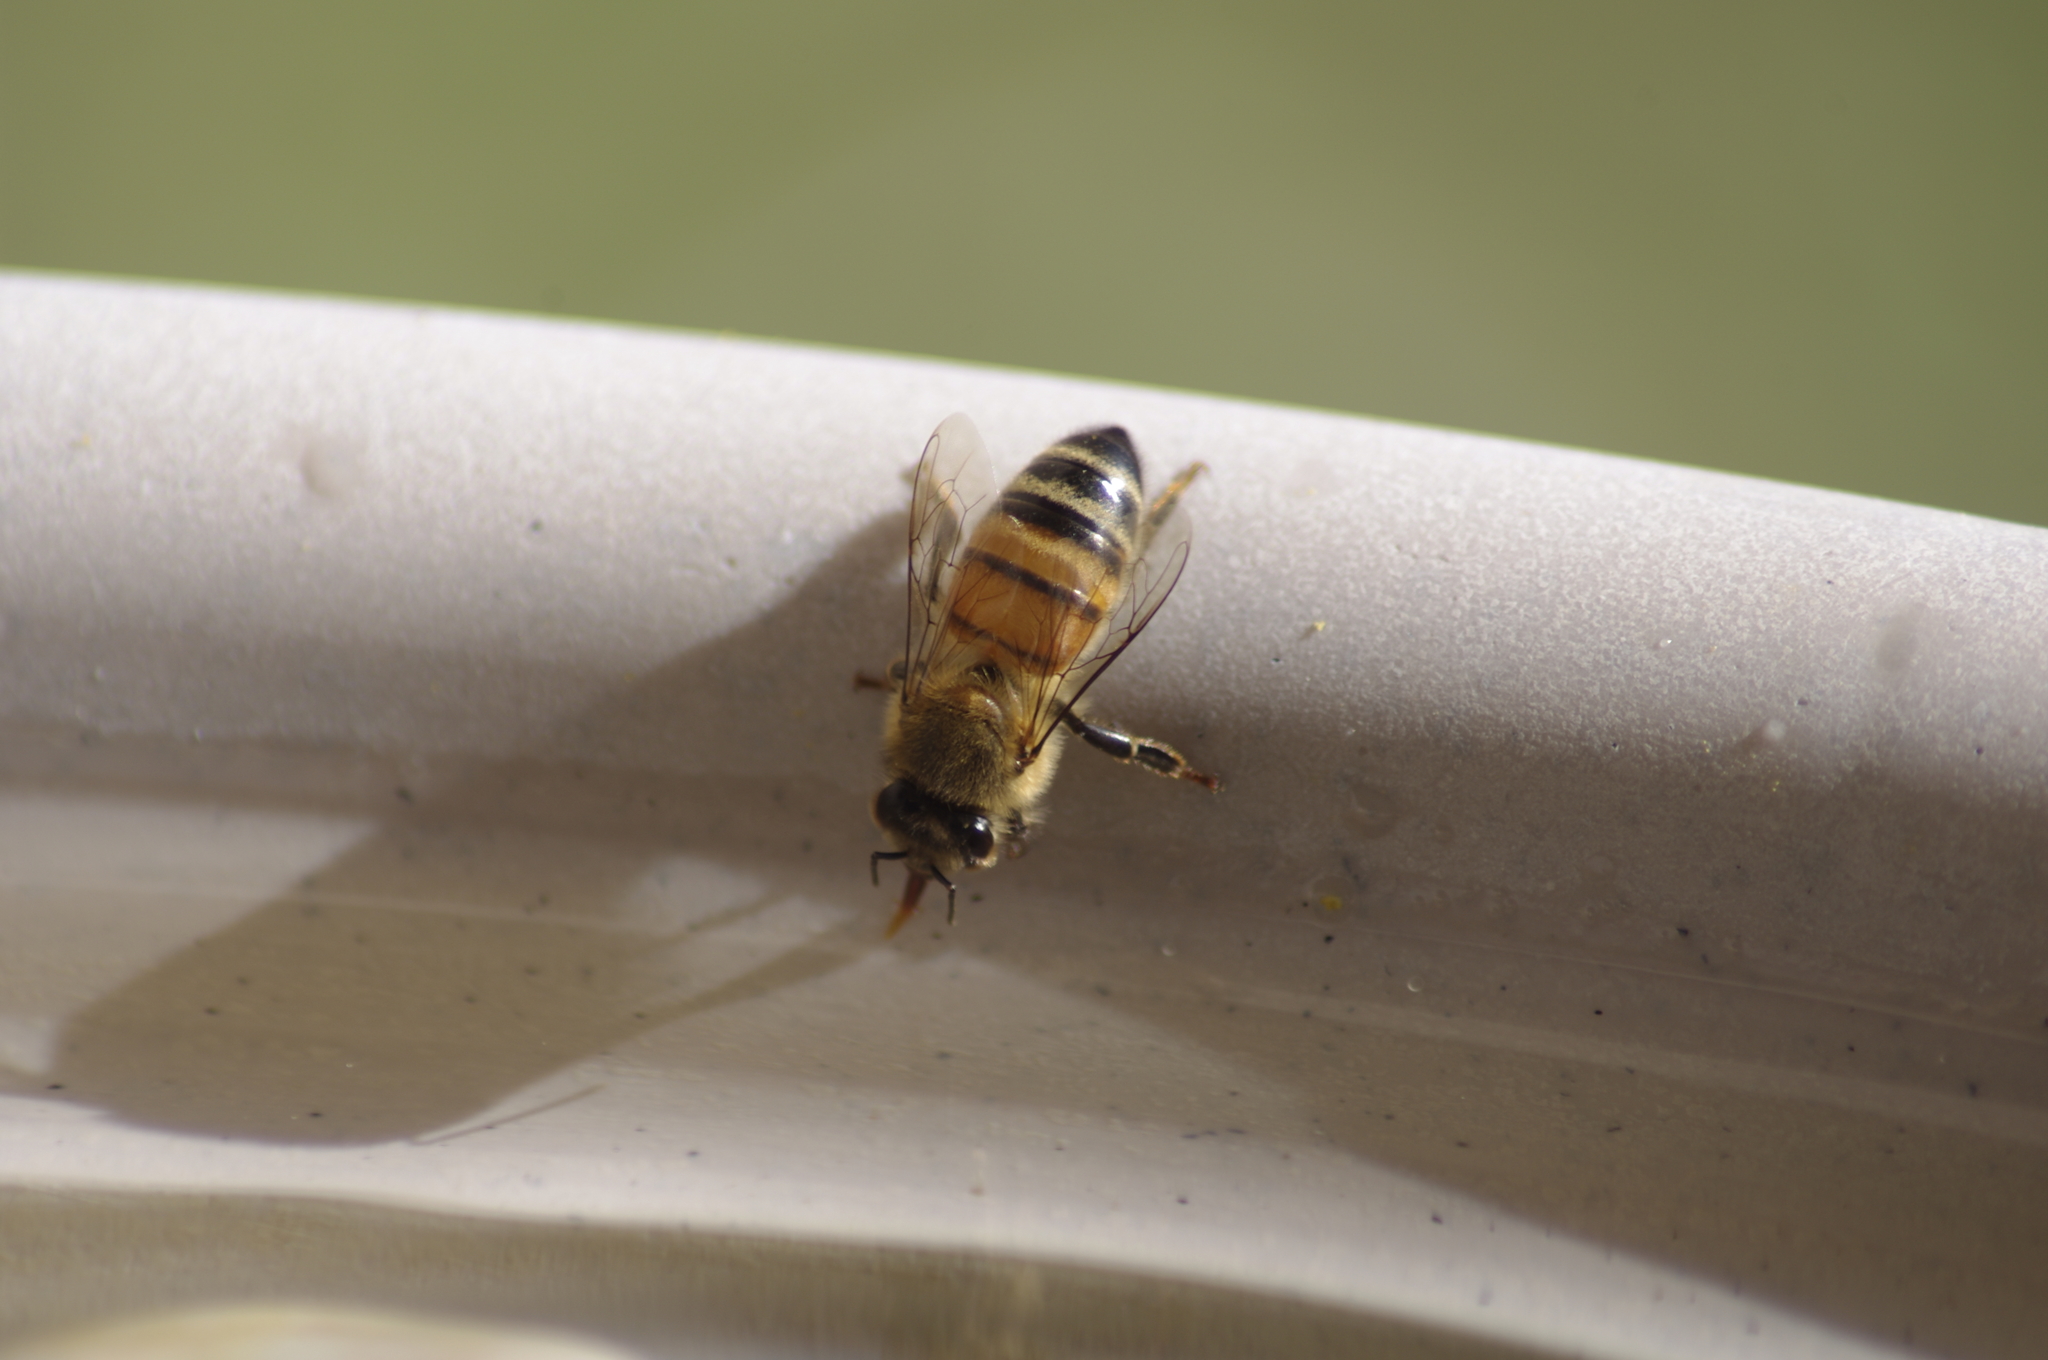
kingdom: Animalia
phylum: Arthropoda
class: Insecta
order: Hymenoptera
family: Apidae
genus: Apis
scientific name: Apis mellifera
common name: Honey bee
